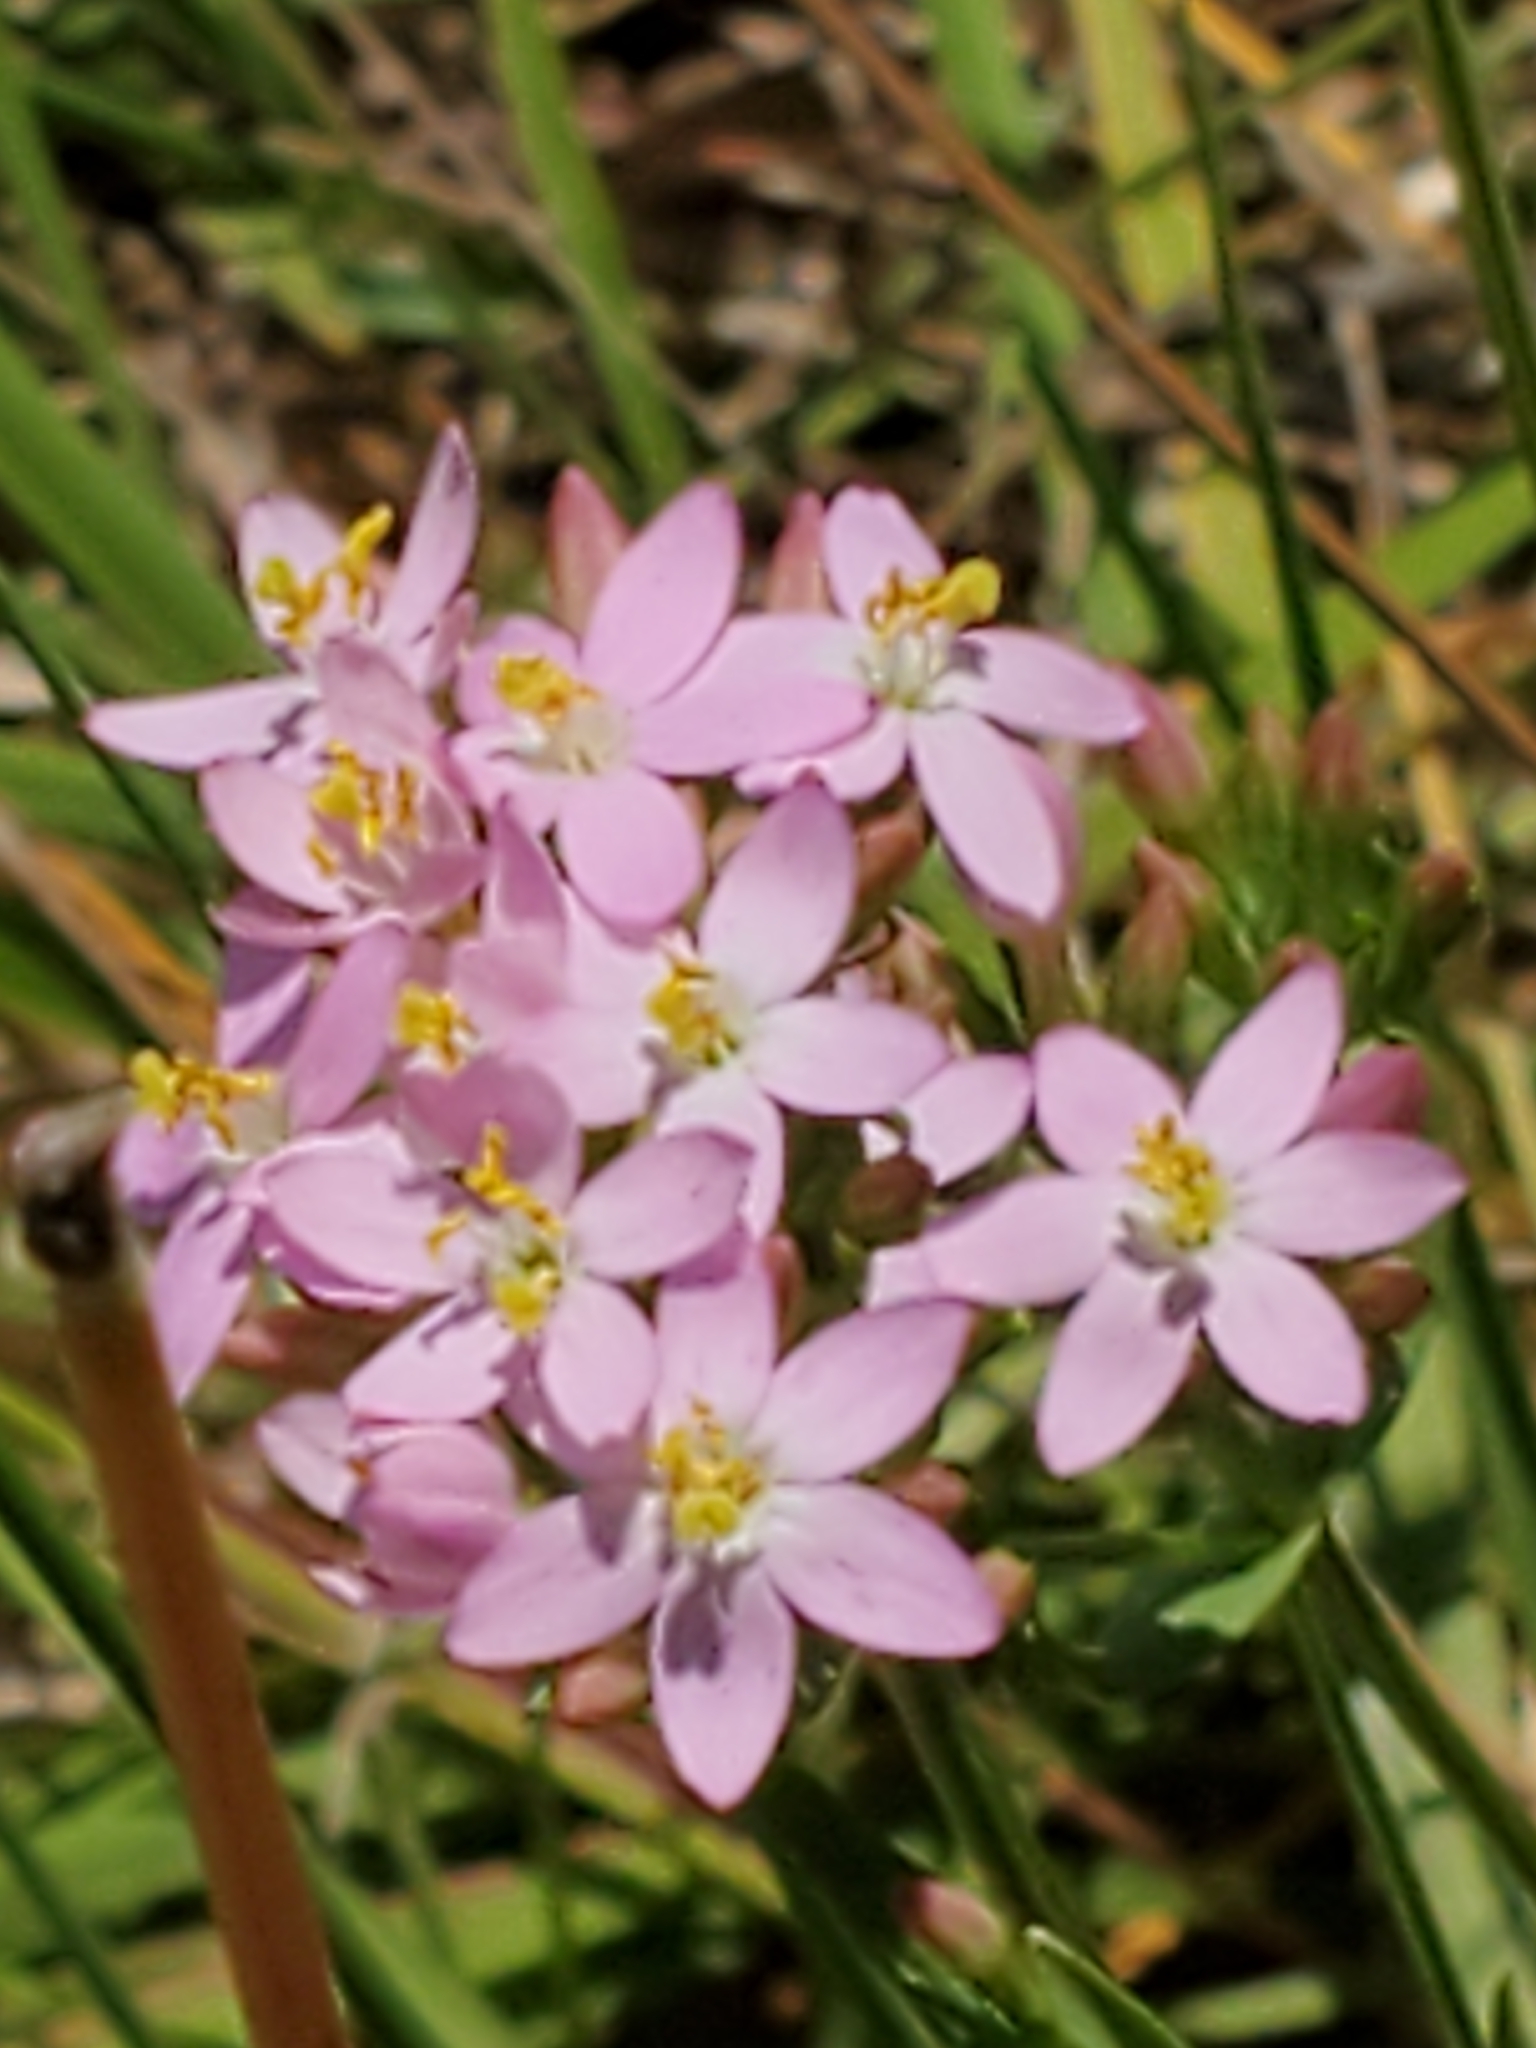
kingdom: Plantae
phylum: Tracheophyta
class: Magnoliopsida
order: Gentianales
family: Gentianaceae
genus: Centaurium
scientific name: Centaurium erythraea
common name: Common centaury
